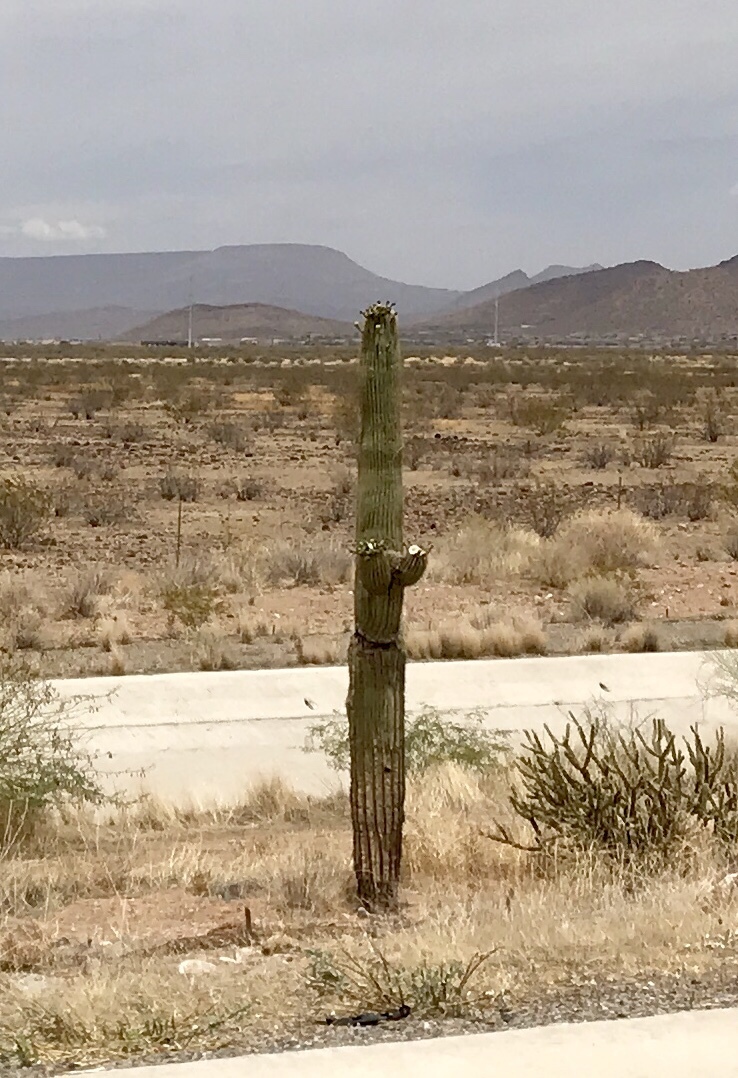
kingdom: Plantae
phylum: Tracheophyta
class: Magnoliopsida
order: Caryophyllales
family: Cactaceae
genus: Carnegiea
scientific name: Carnegiea gigantea
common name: Saguaro
